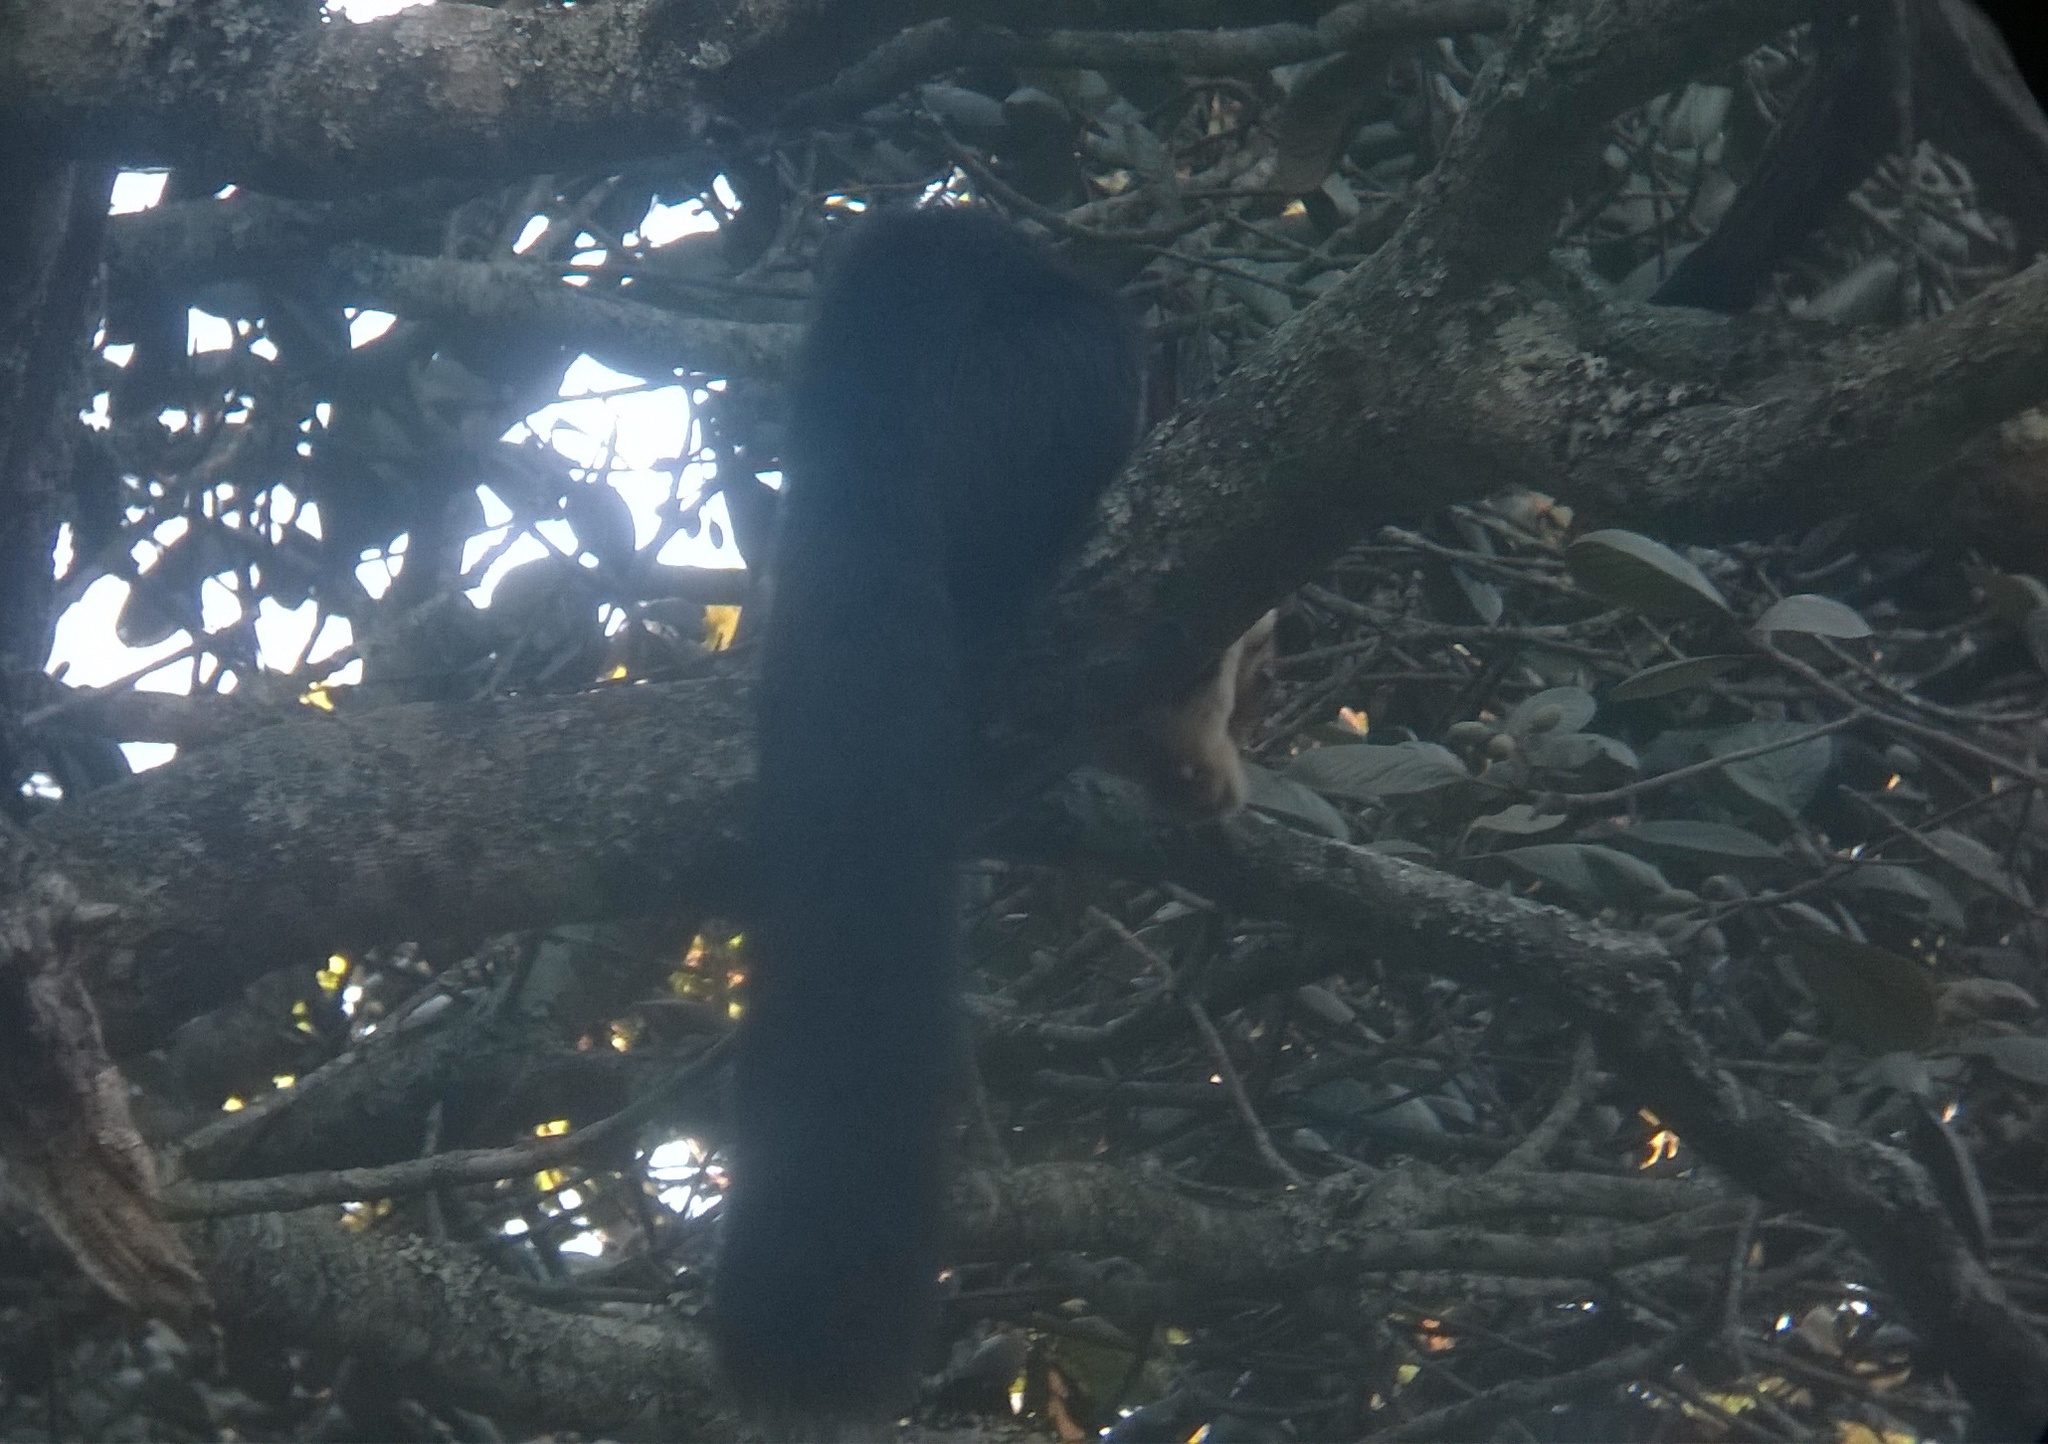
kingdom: Animalia
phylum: Chordata
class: Mammalia
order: Rodentia
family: Sciuridae
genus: Ratufa
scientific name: Ratufa indica
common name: Indian giant squirrel
